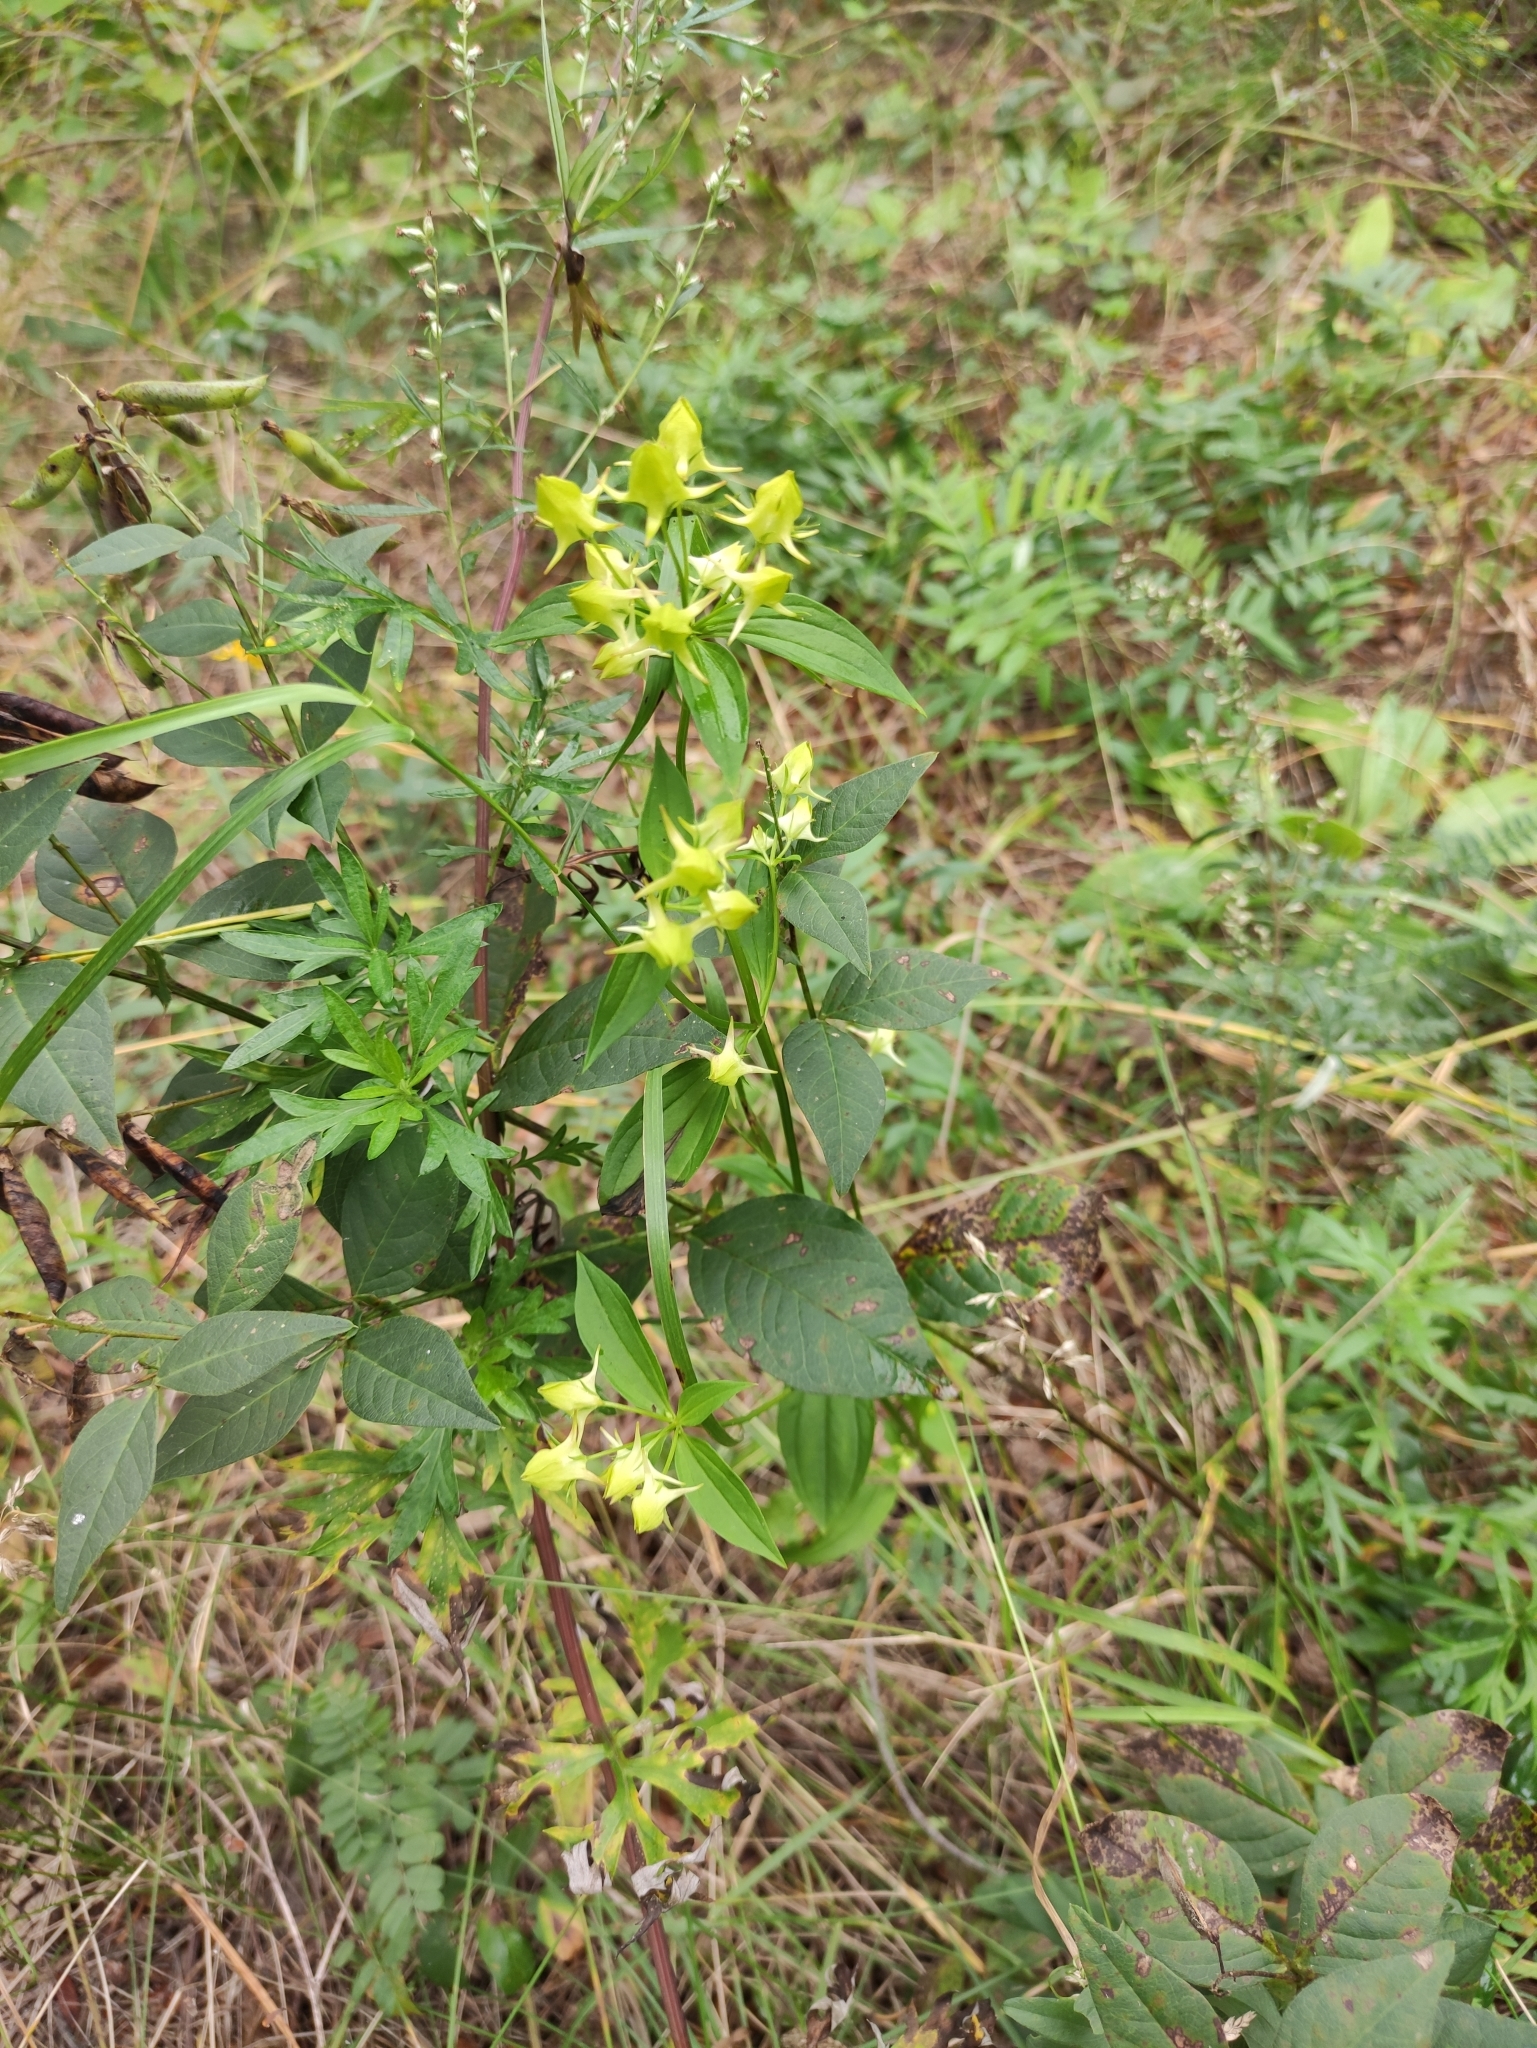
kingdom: Plantae
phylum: Tracheophyta
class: Magnoliopsida
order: Gentianales
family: Gentianaceae
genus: Halenia
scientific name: Halenia corniculata
